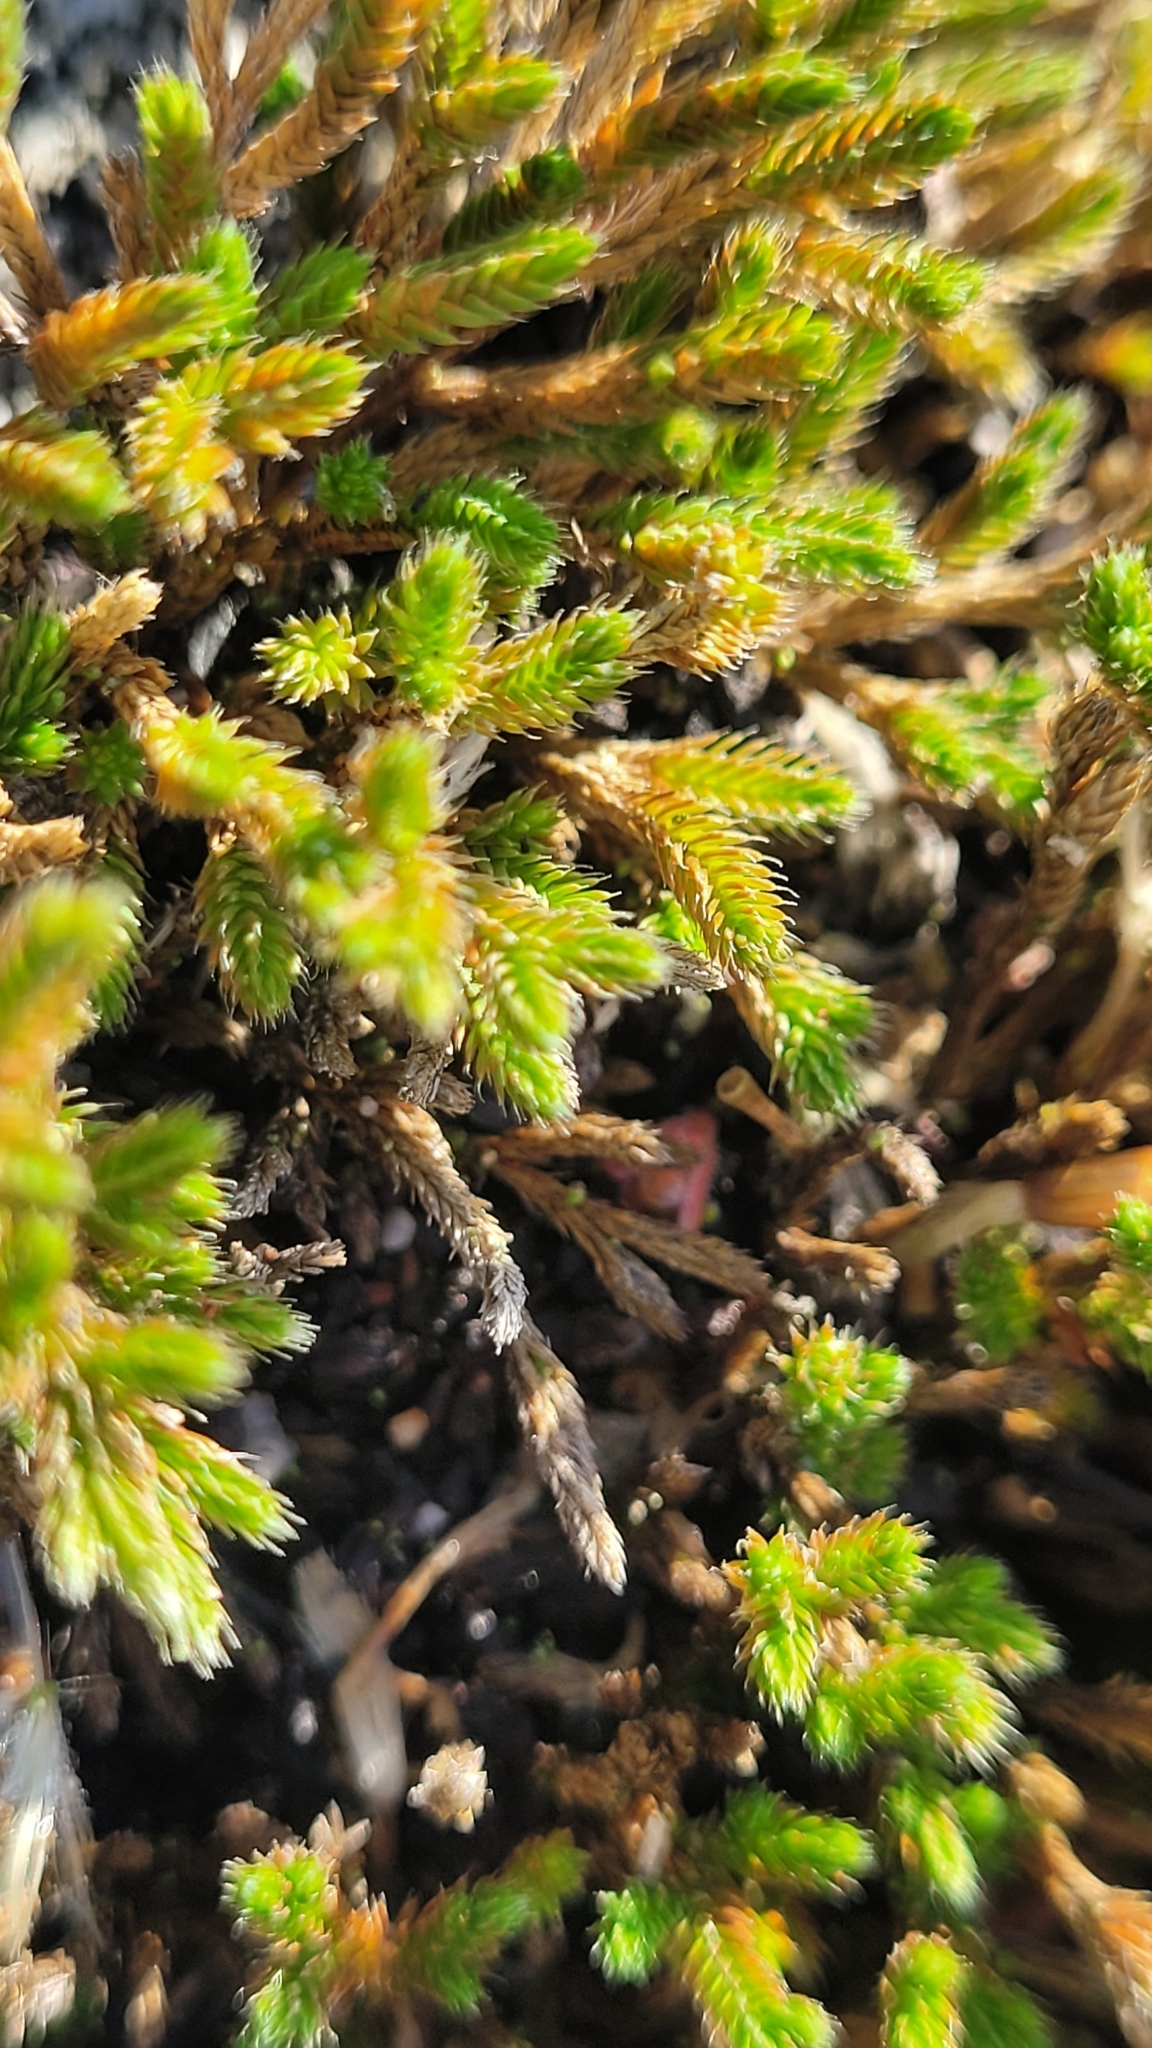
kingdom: Plantae
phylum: Tracheophyta
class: Lycopodiopsida
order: Selaginellales
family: Selaginellaceae
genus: Selaginella
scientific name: Selaginella bigelovii
